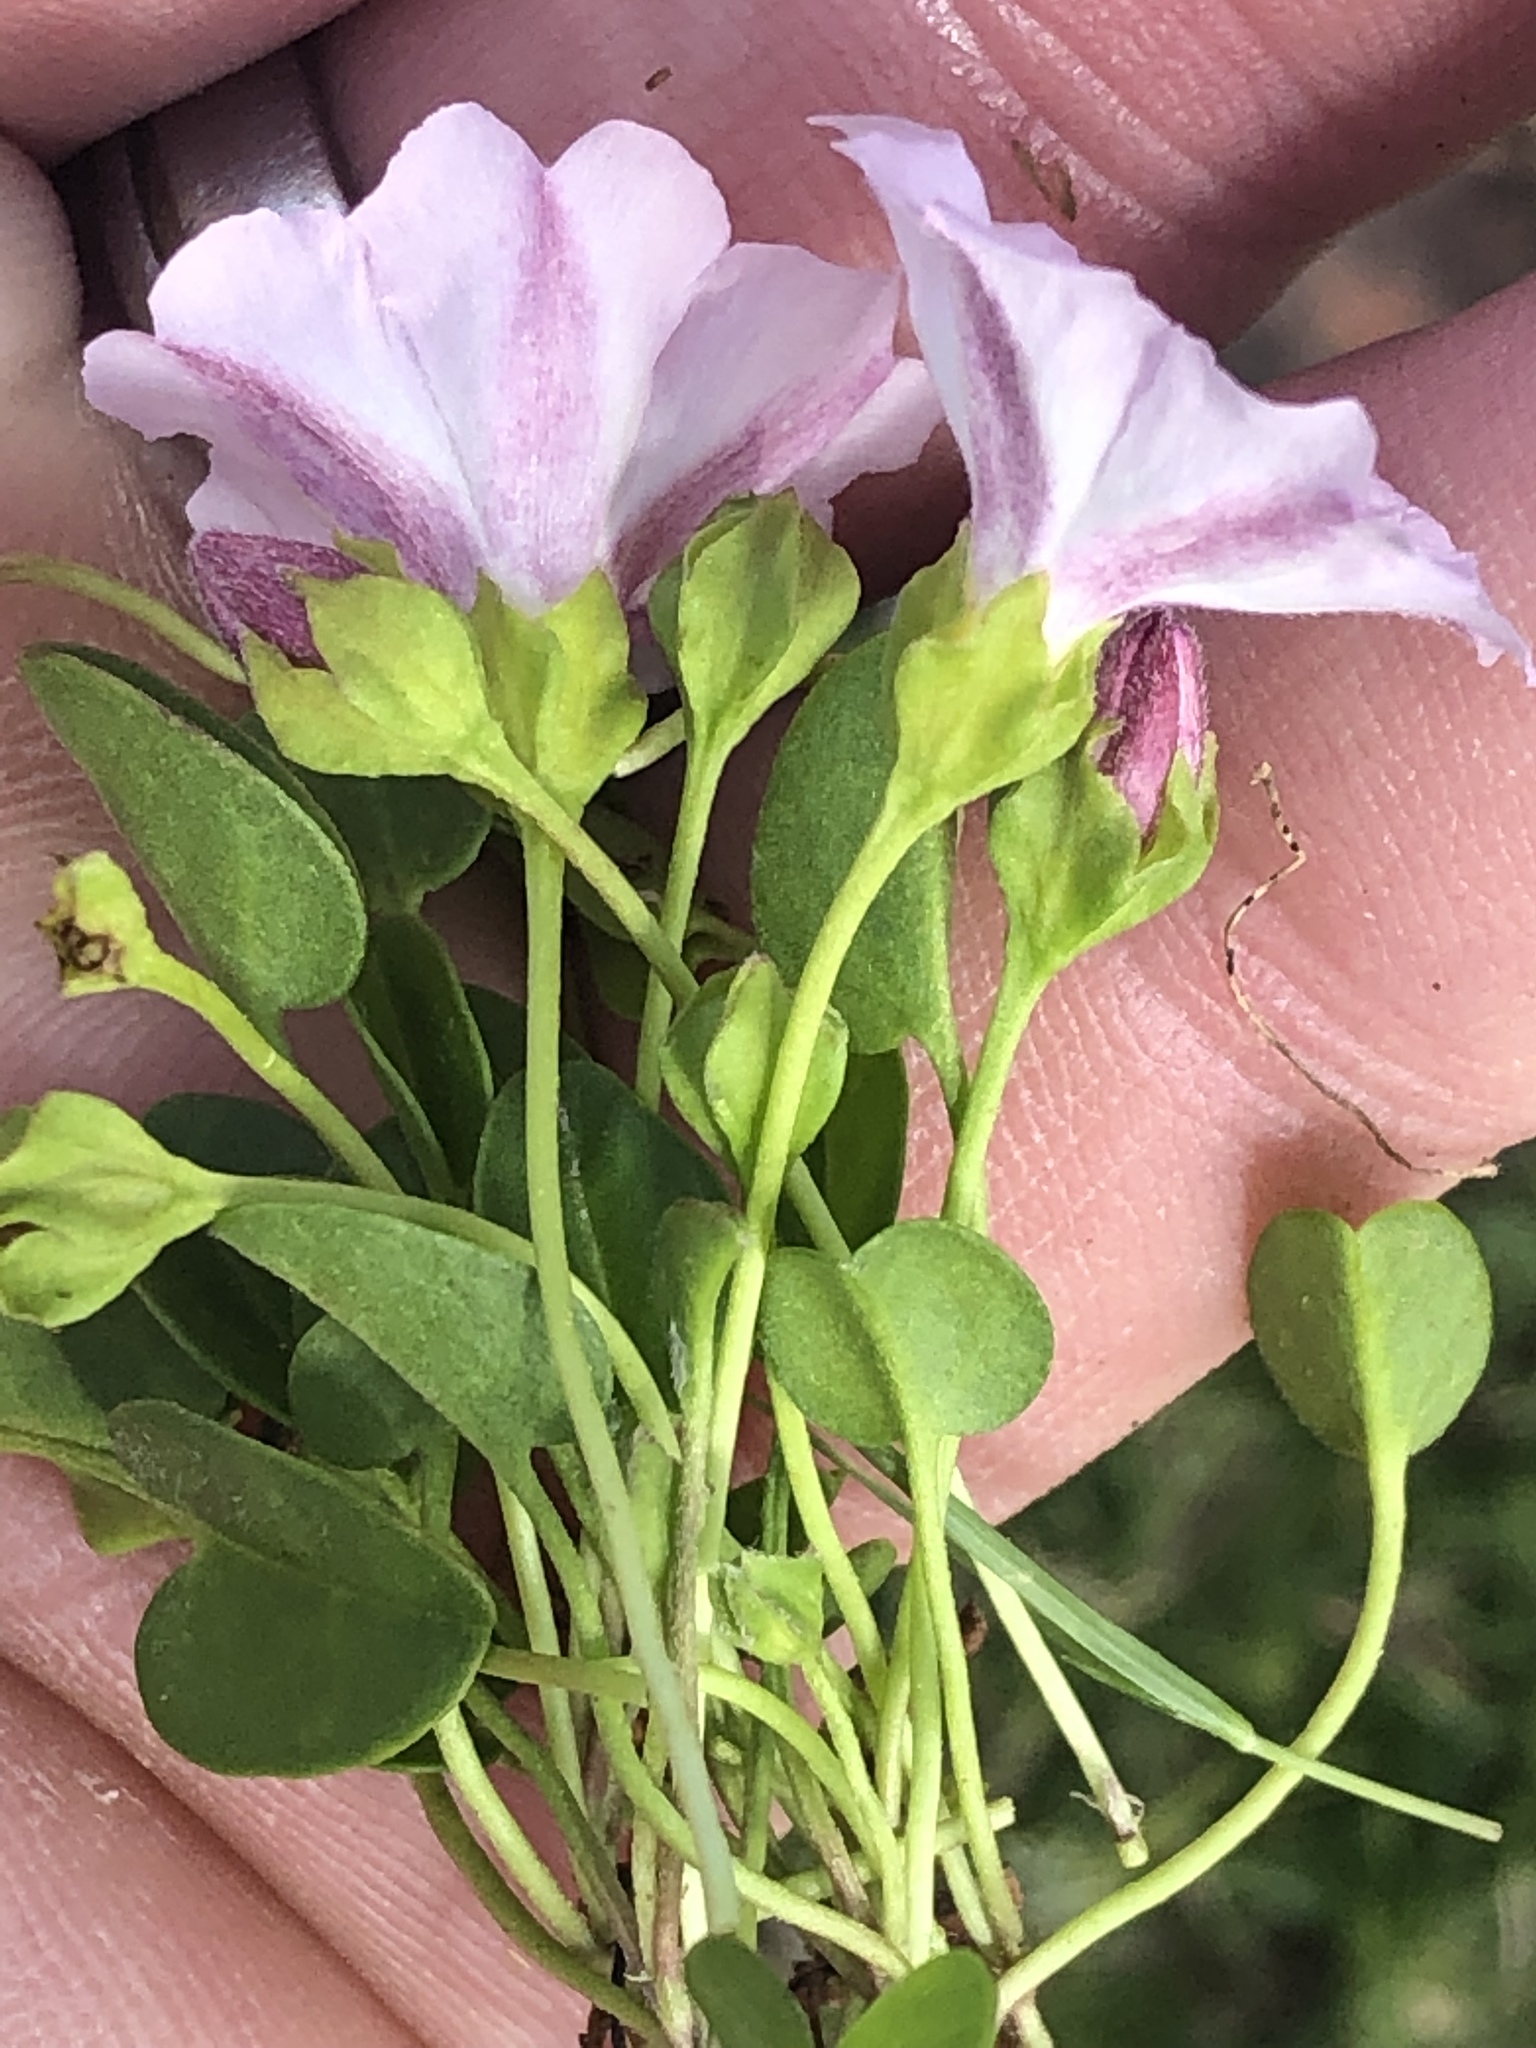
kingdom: Plantae
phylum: Tracheophyta
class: Magnoliopsida
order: Solanales
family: Convolvulaceae
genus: Falkia
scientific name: Falkia repens
